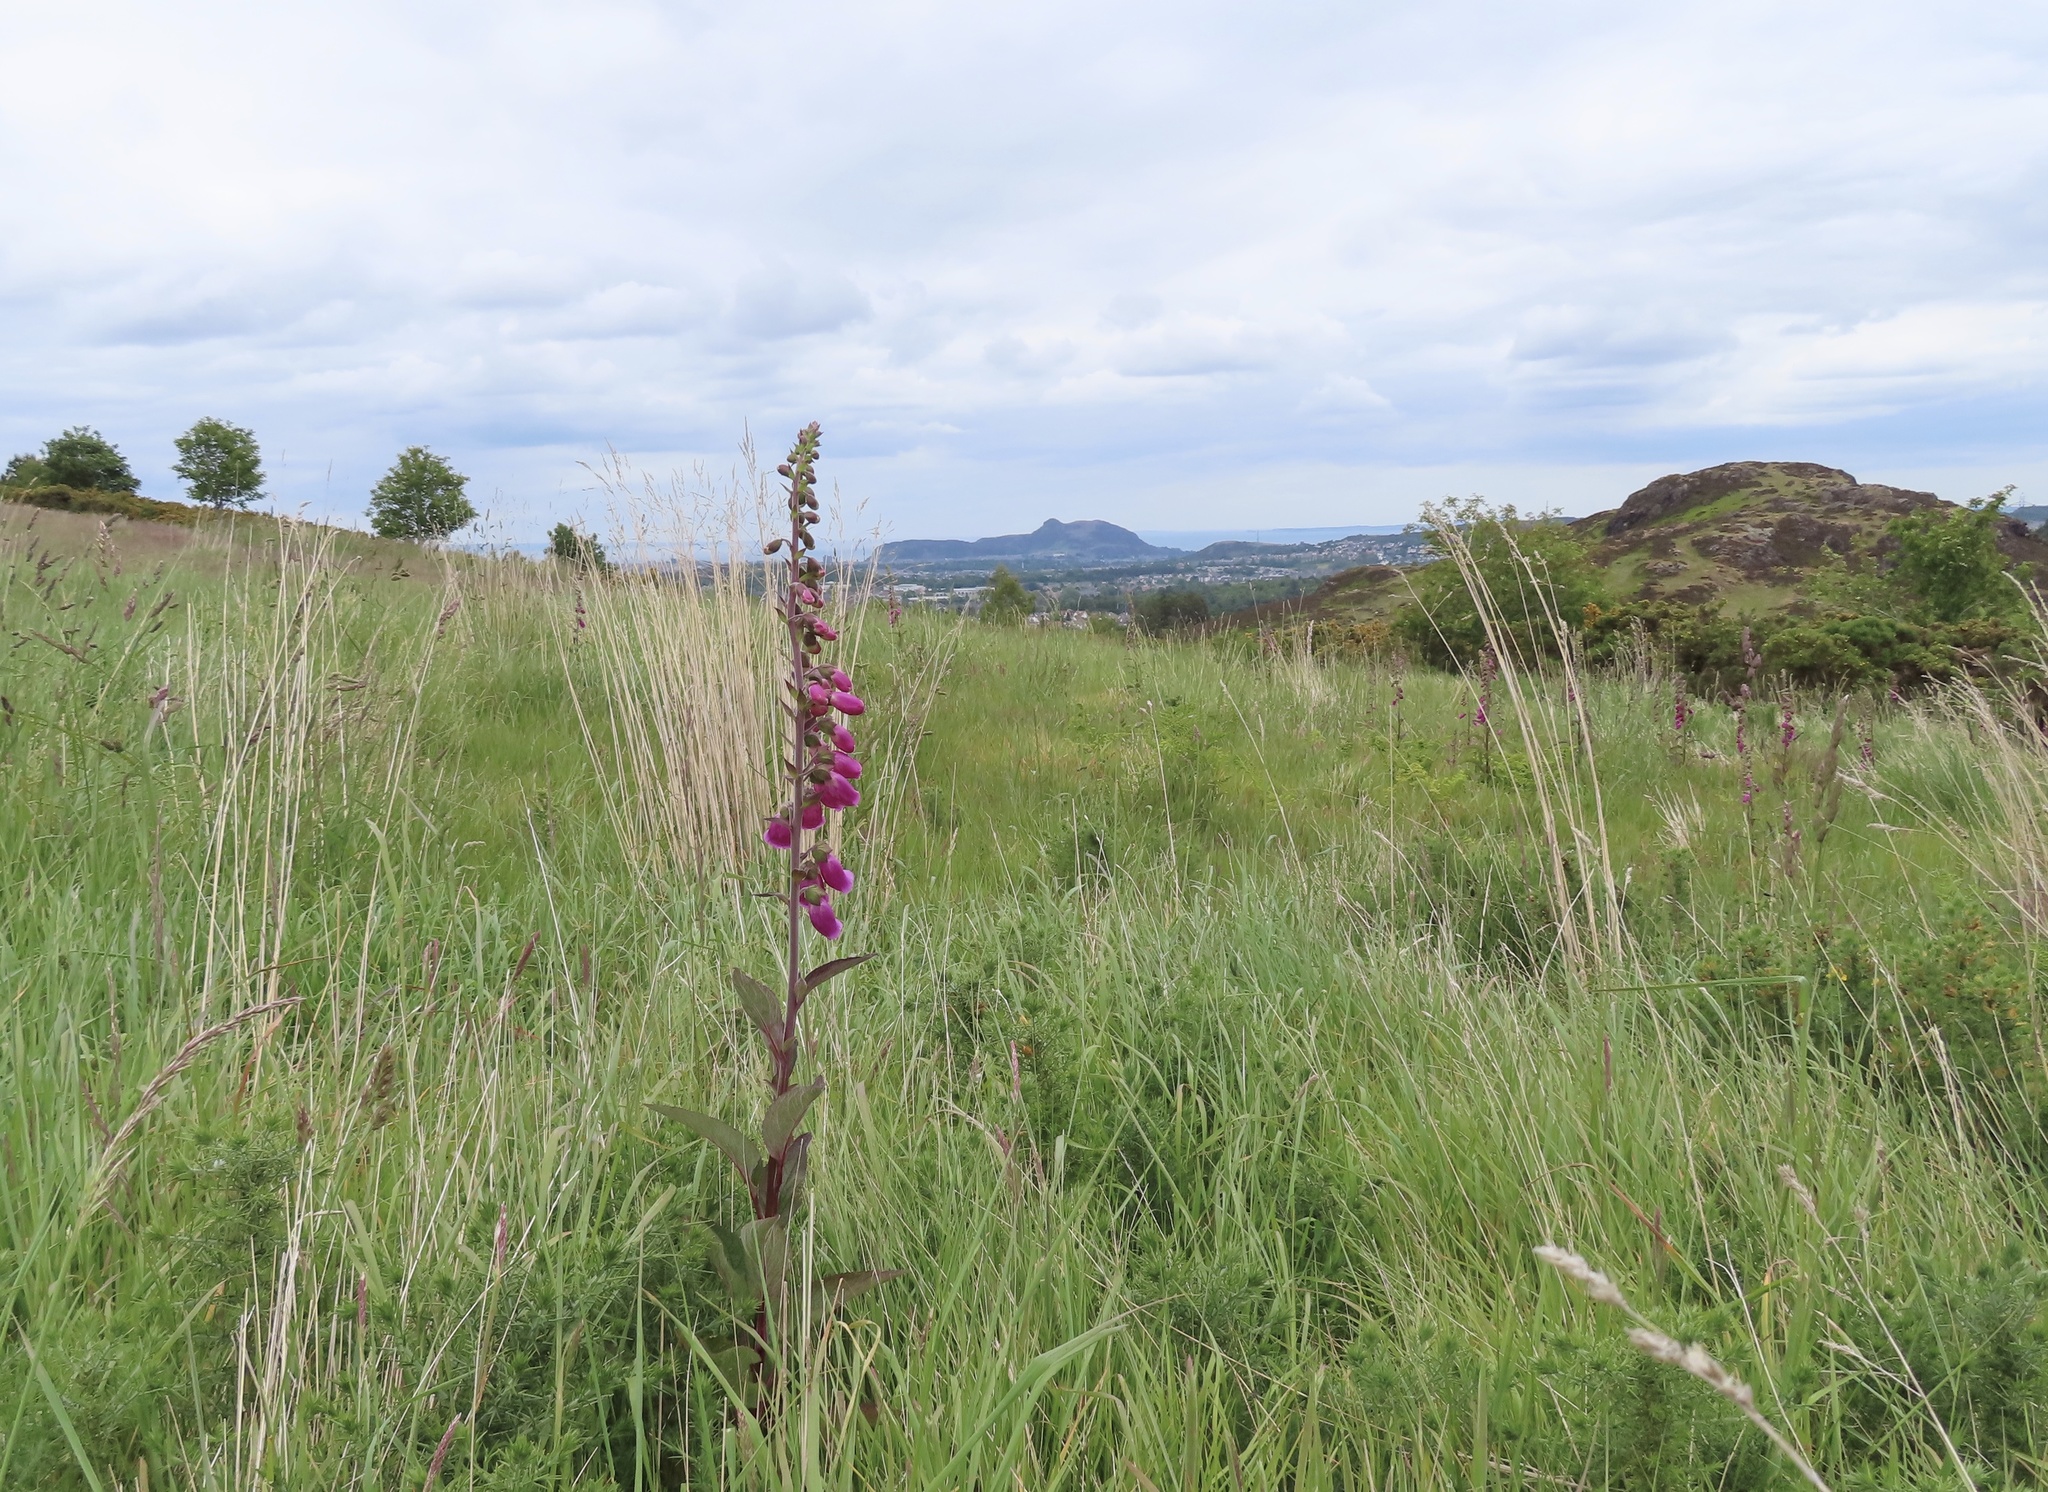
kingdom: Plantae
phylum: Tracheophyta
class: Magnoliopsida
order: Lamiales
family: Plantaginaceae
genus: Digitalis
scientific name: Digitalis purpurea
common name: Foxglove
